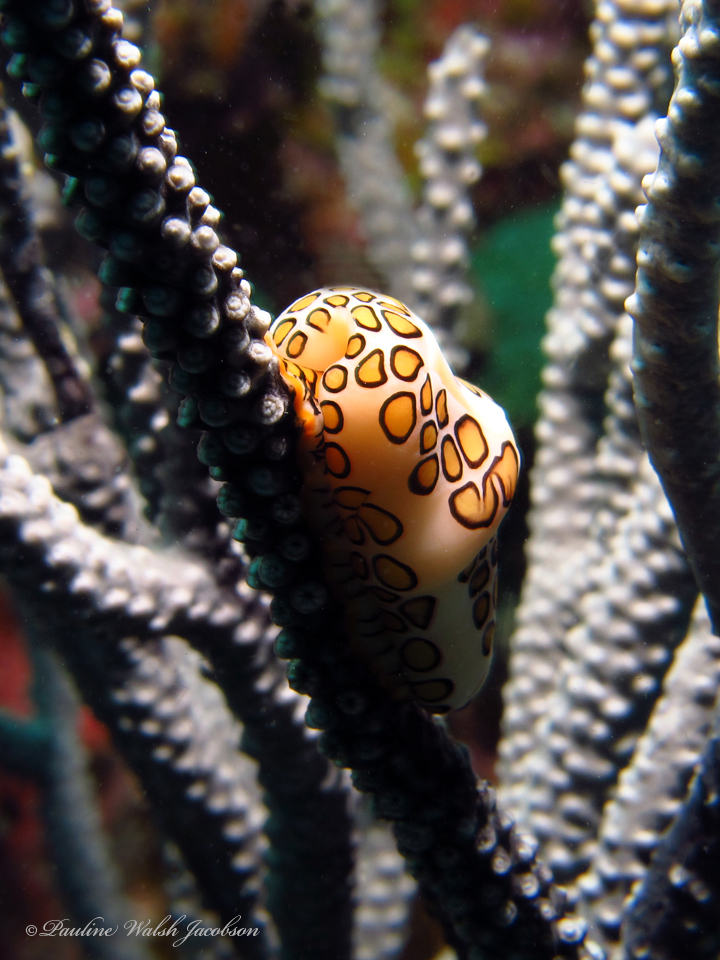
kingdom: Animalia
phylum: Mollusca
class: Gastropoda
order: Littorinimorpha
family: Ovulidae
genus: Cyphoma
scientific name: Cyphoma gibbosum
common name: Flamingo tongue
